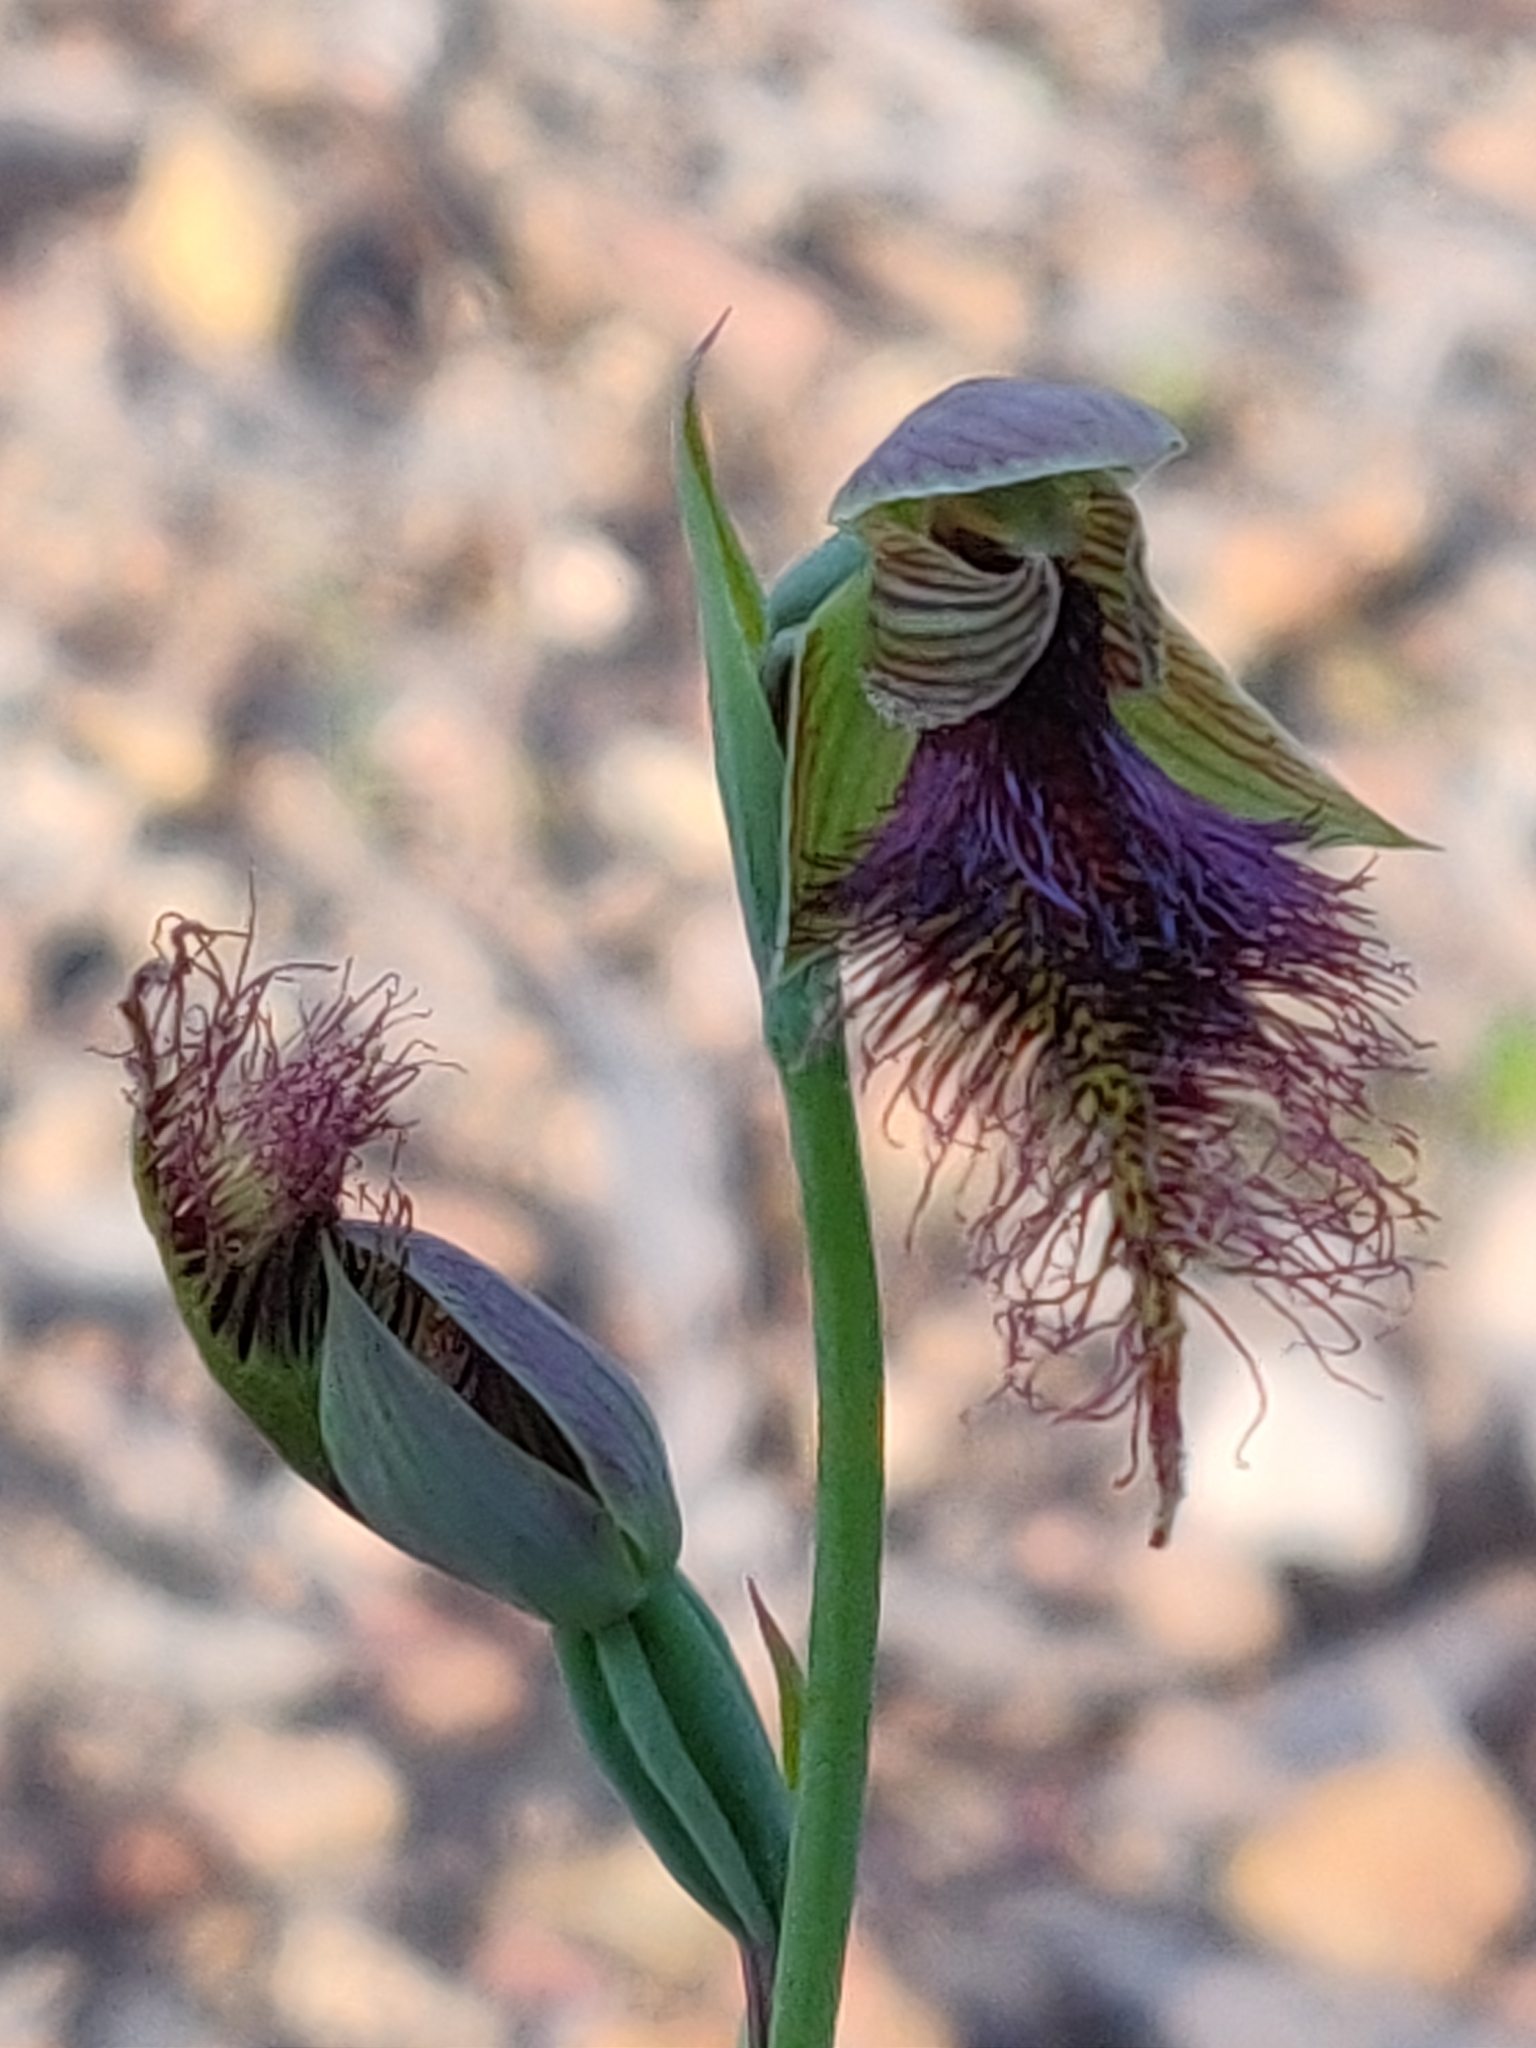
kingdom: Plantae
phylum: Tracheophyta
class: Liliopsida
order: Asparagales
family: Orchidaceae
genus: Calochilus
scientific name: Calochilus robertsonii
